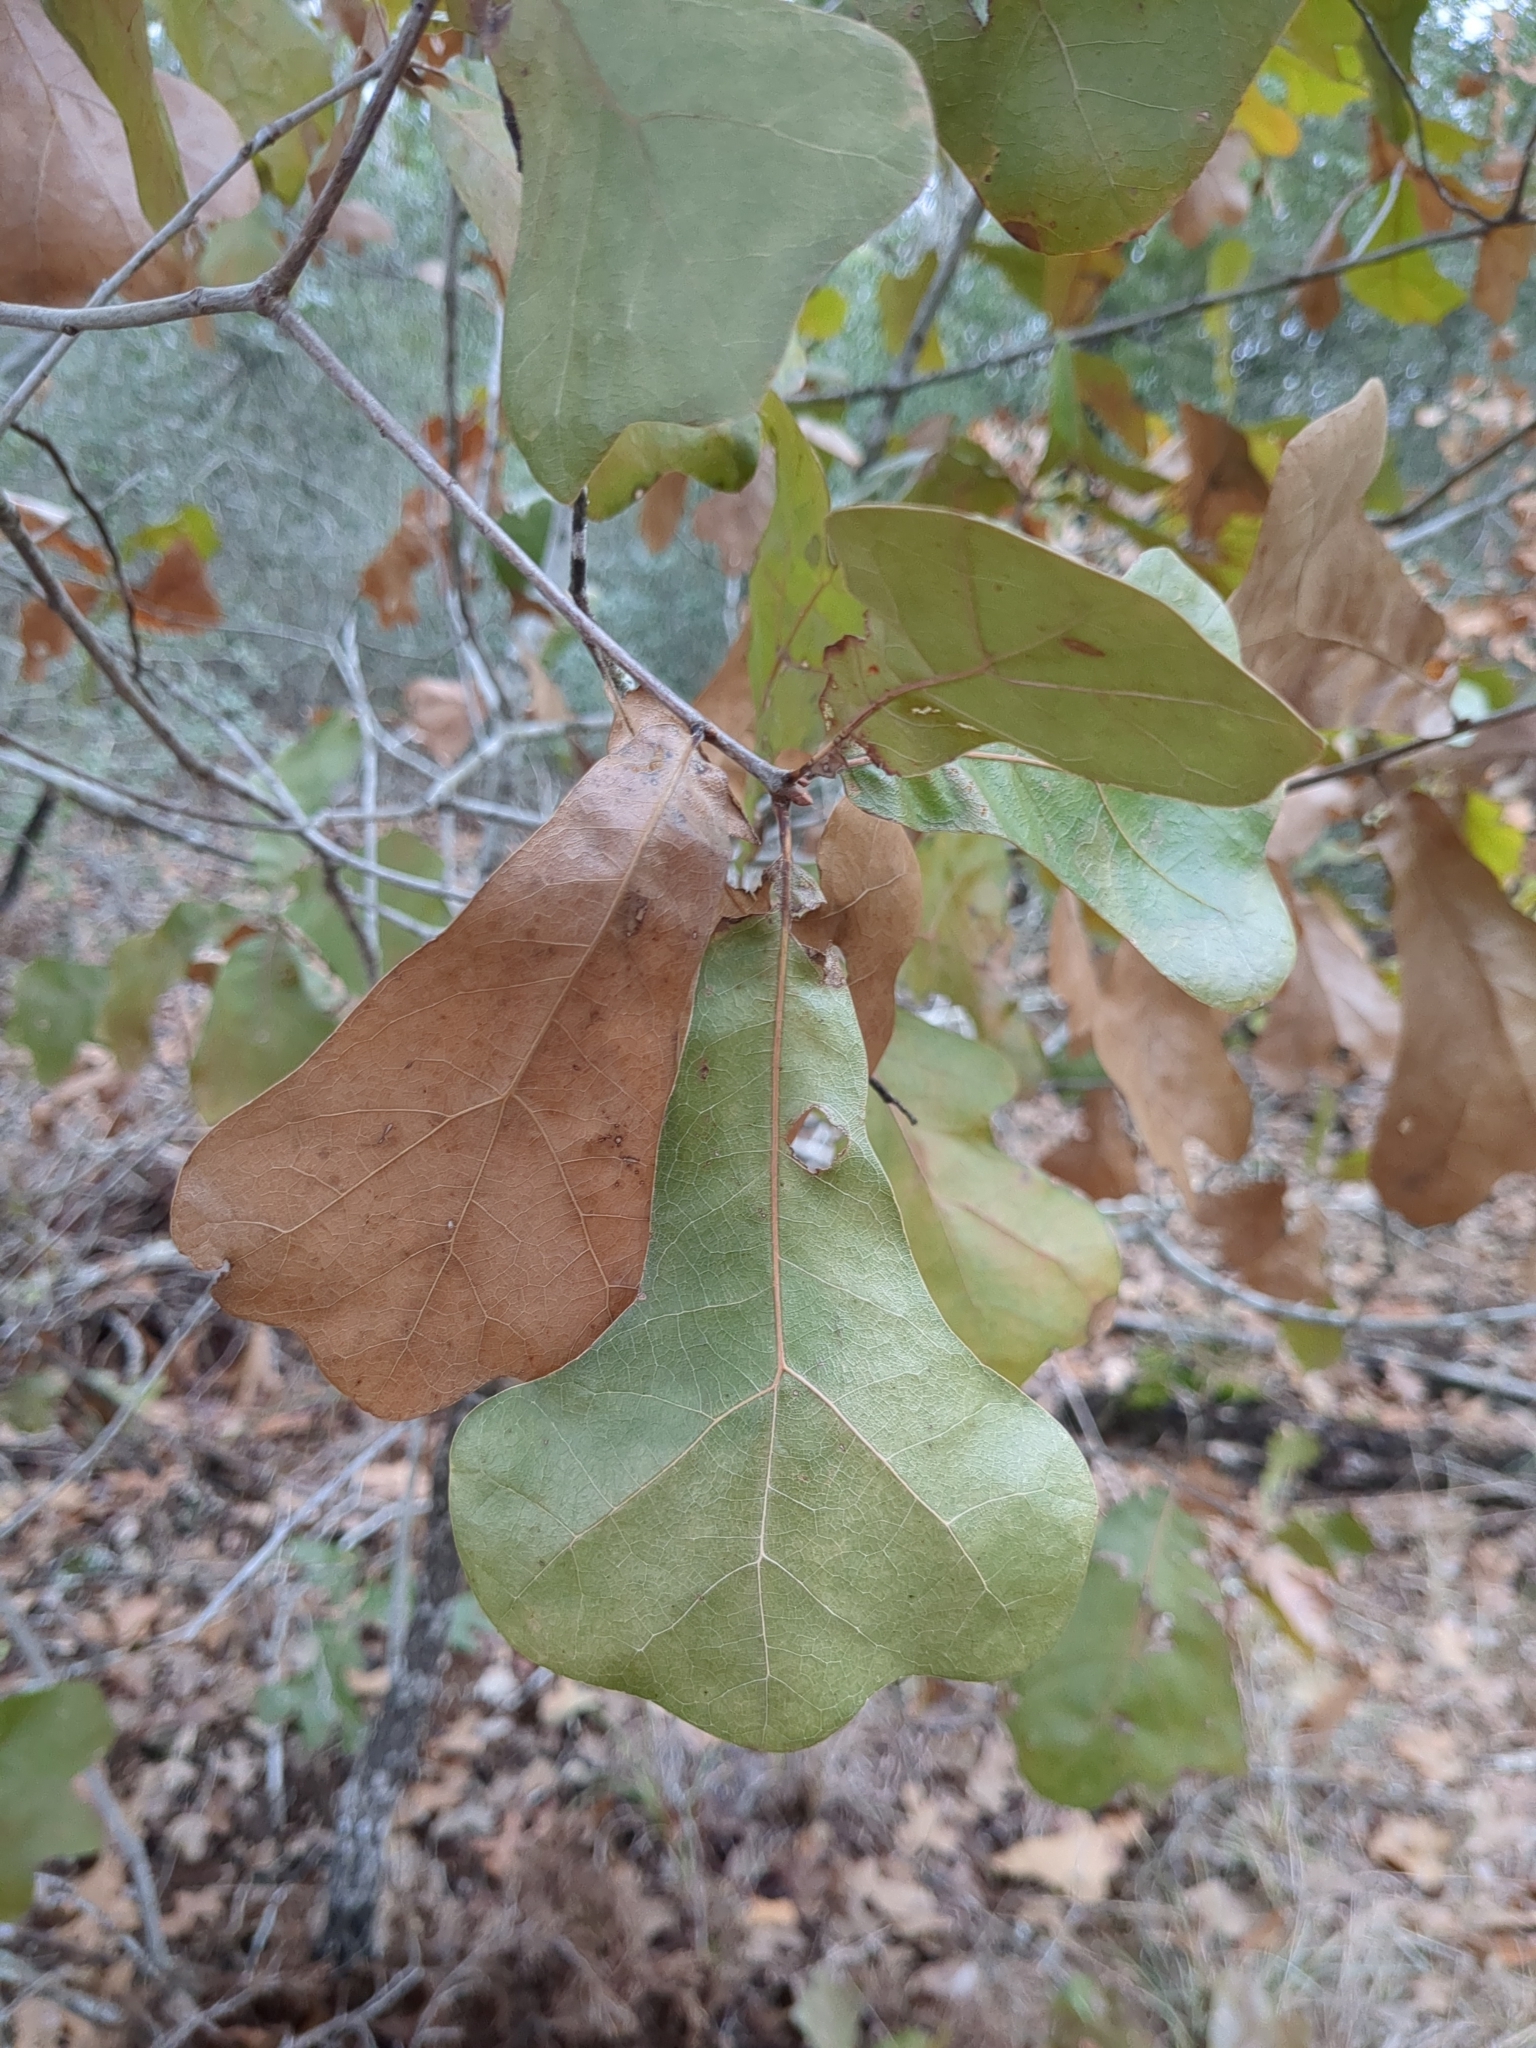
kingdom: Plantae
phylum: Tracheophyta
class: Magnoliopsida
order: Fagales
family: Fagaceae
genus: Quercus
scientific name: Quercus marilandica
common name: Blackjack oak
